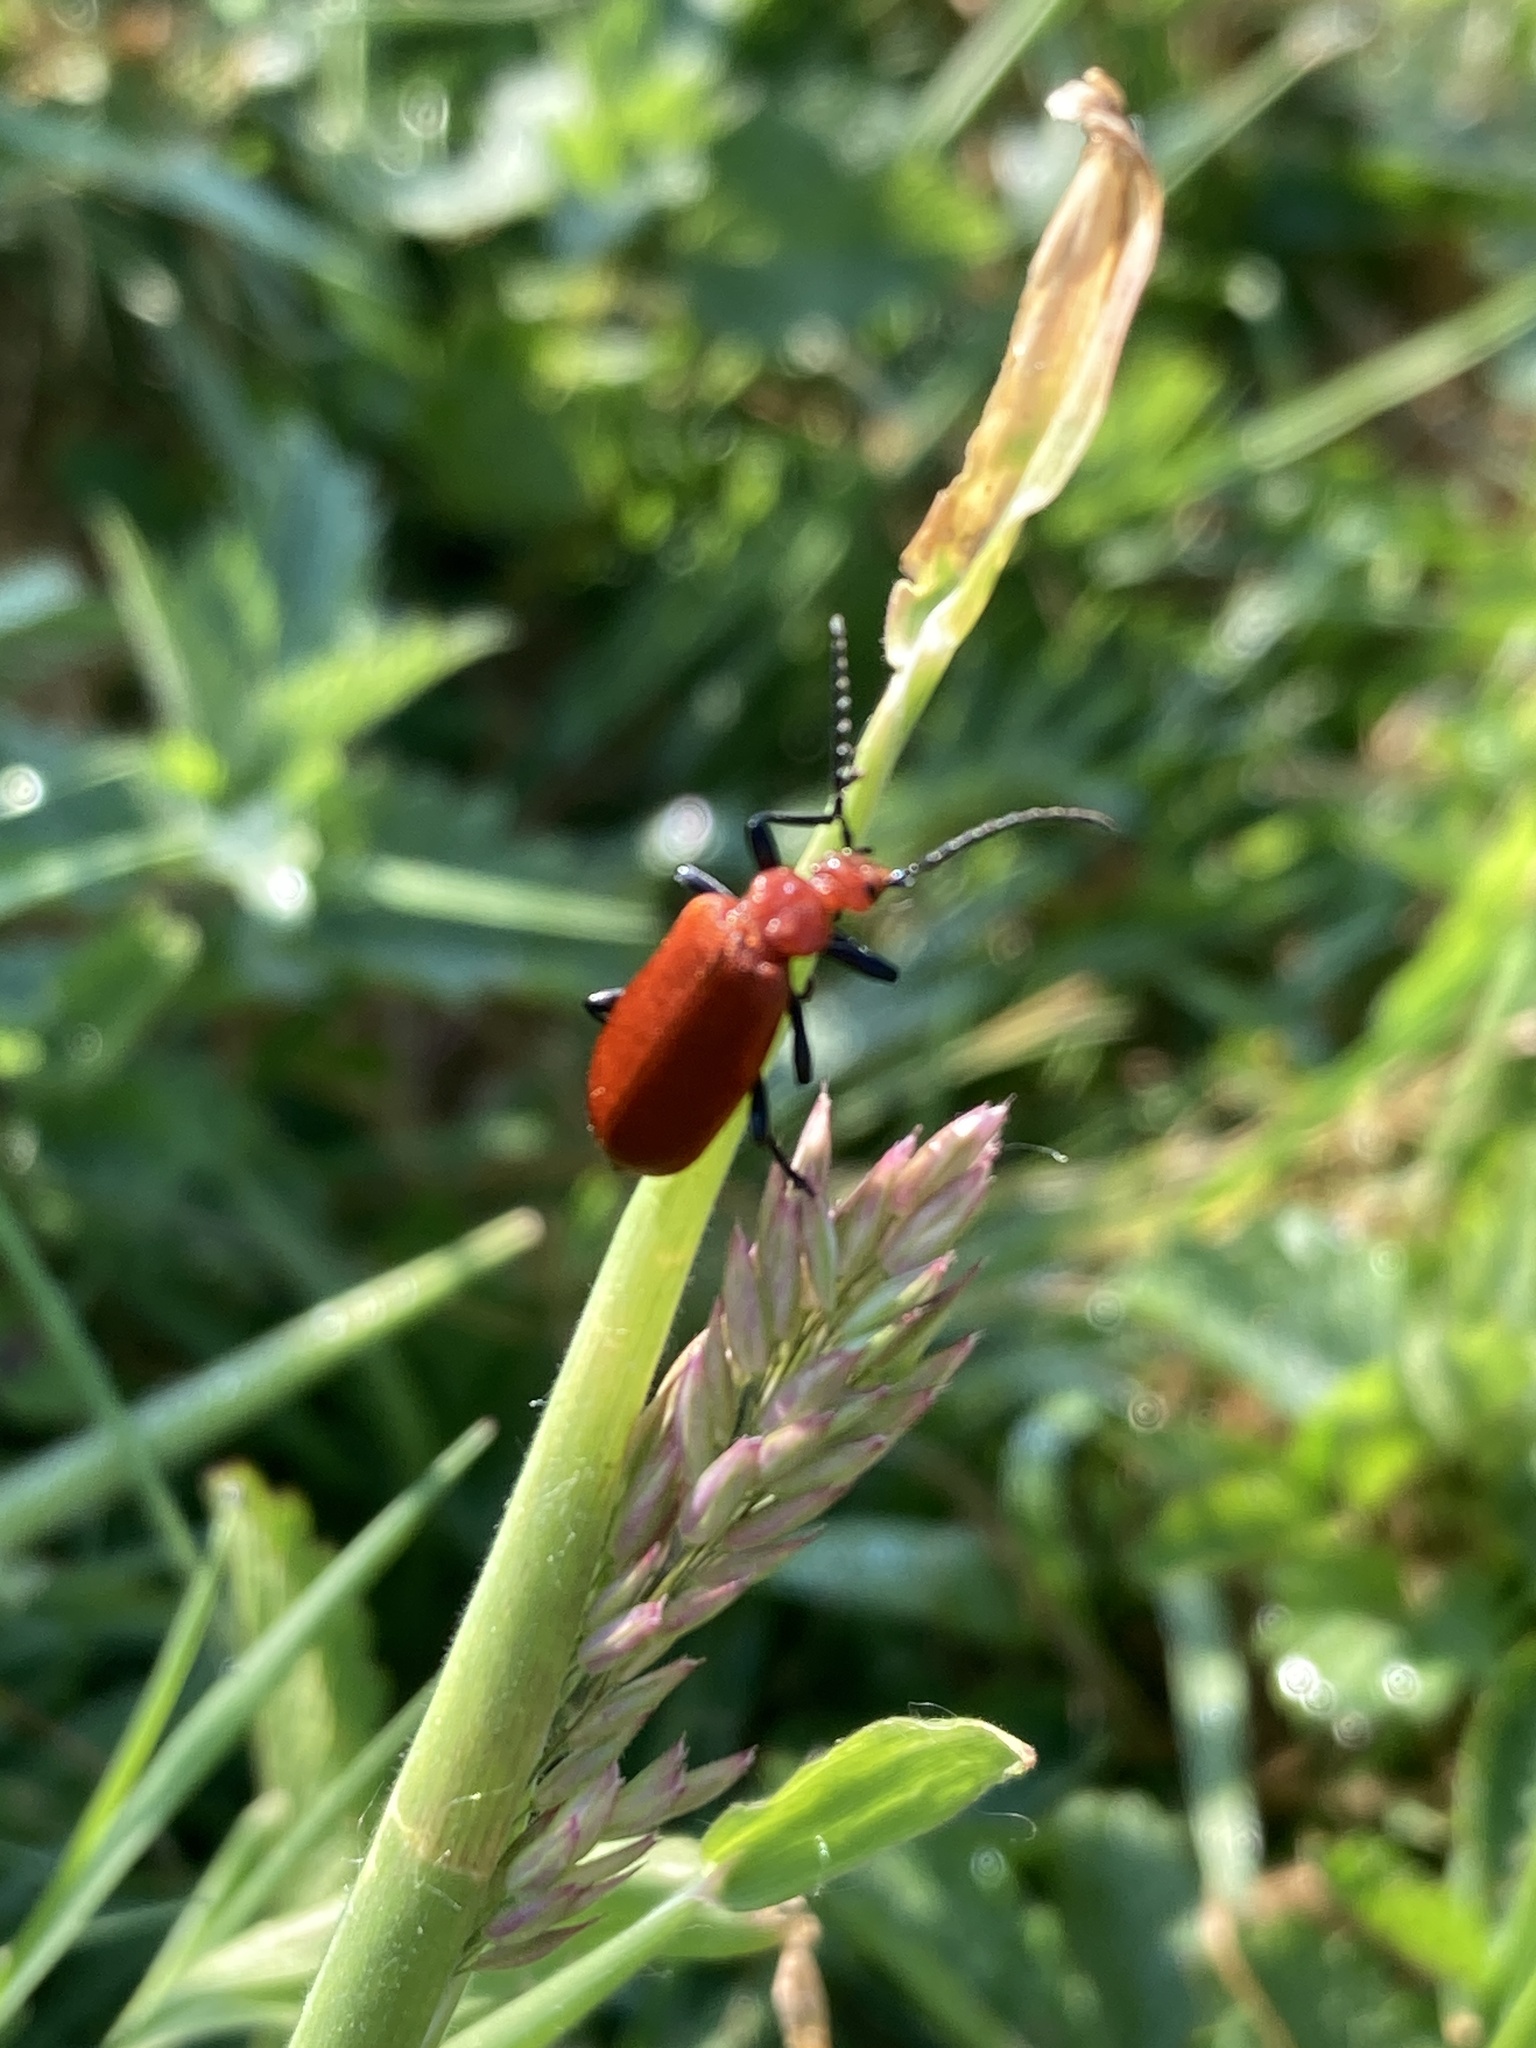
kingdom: Animalia
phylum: Arthropoda
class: Insecta
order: Coleoptera
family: Pyrochroidae
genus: Pyrochroa
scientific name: Pyrochroa serraticornis
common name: Red-headed cardinal beetle
